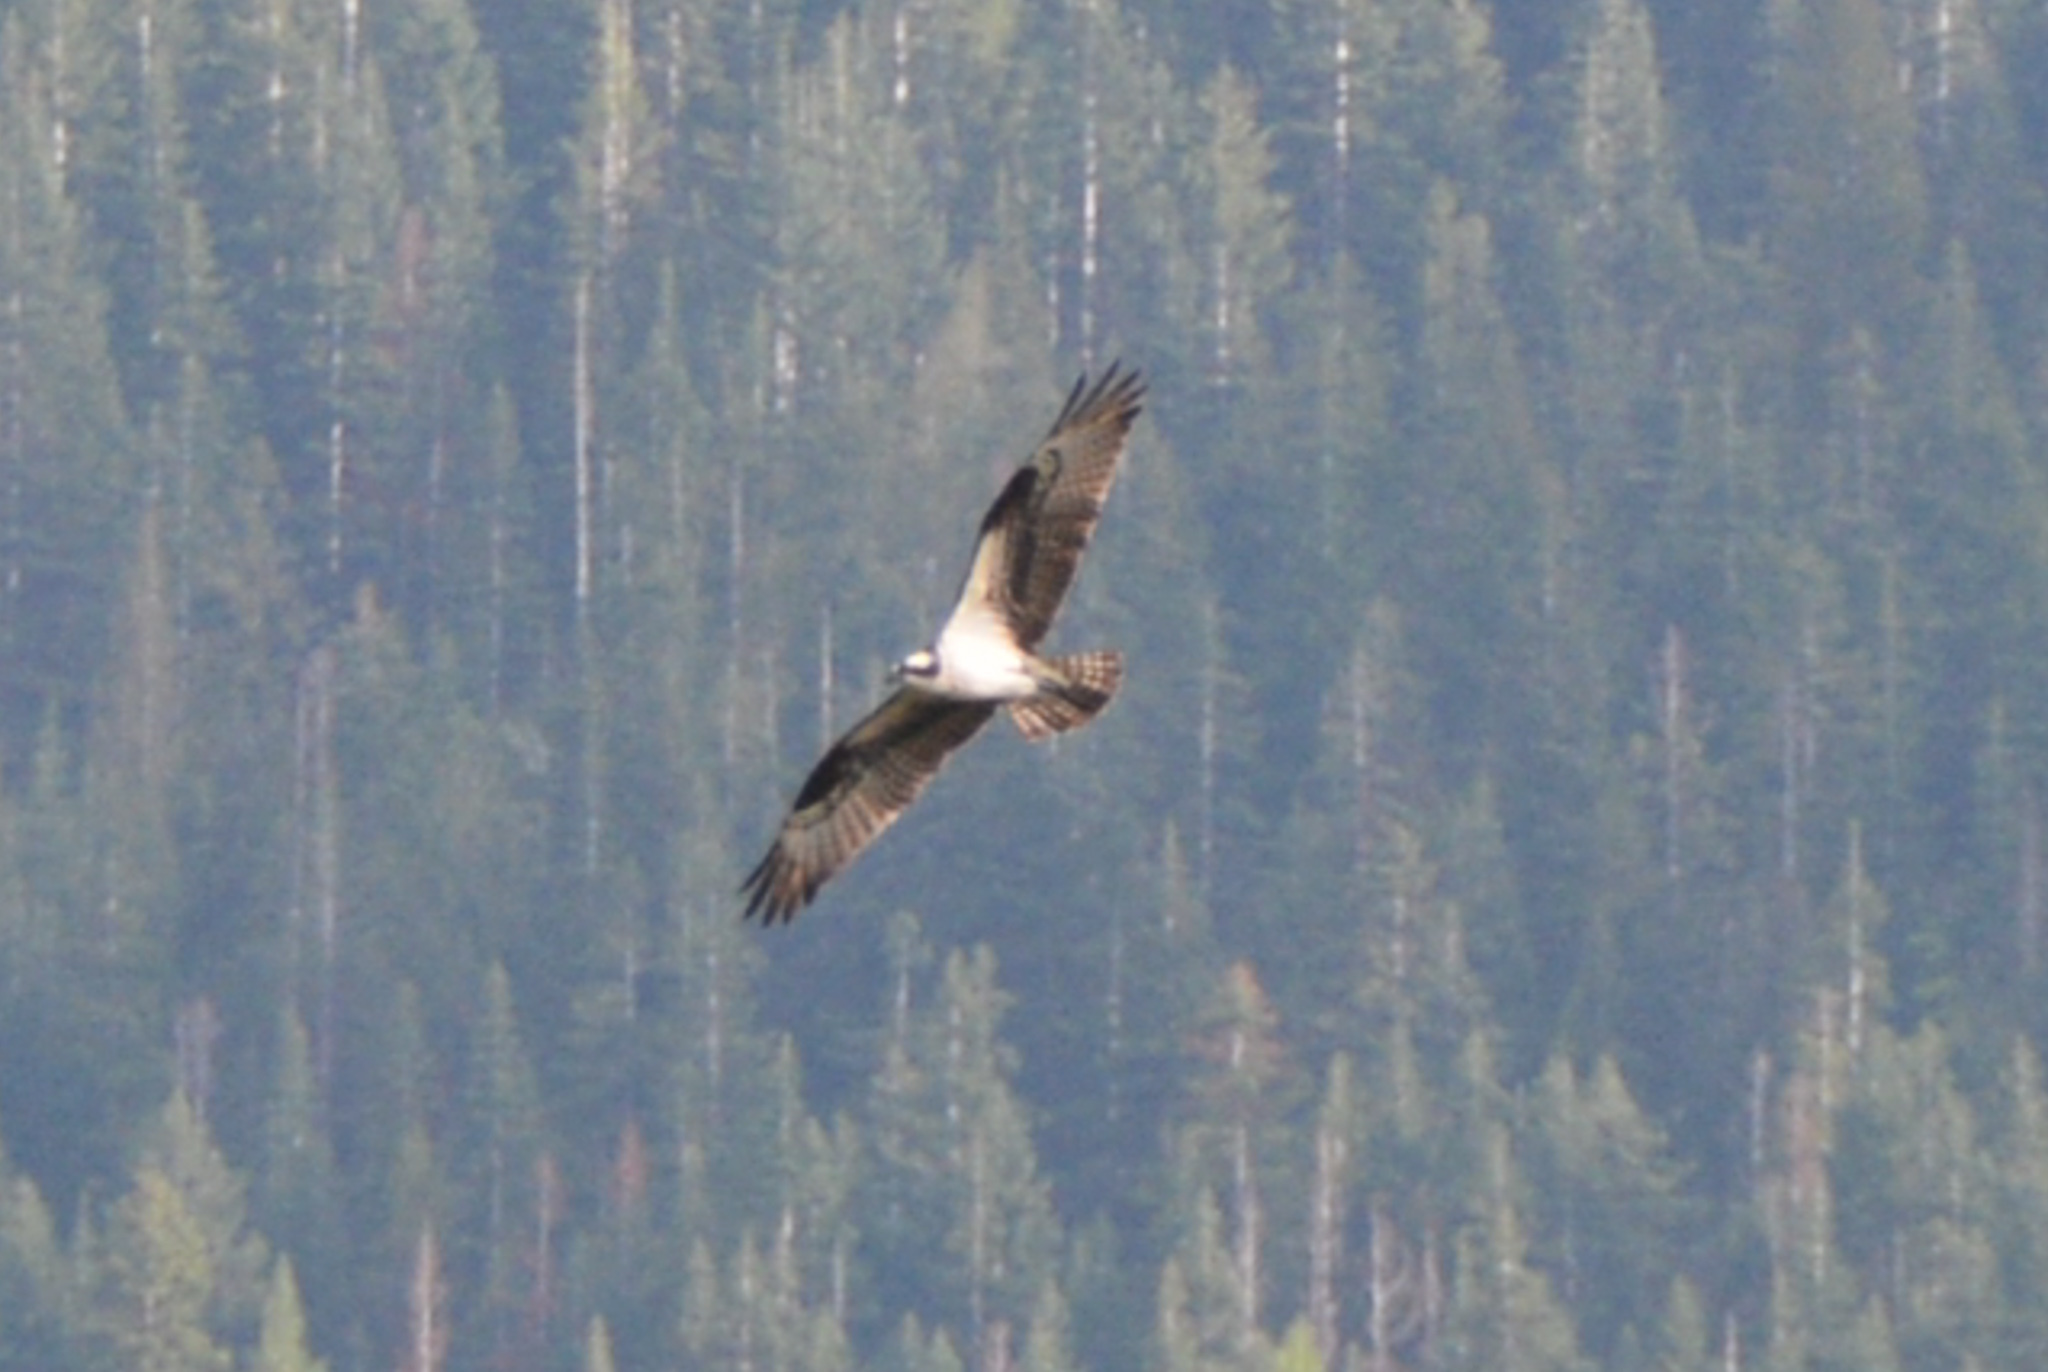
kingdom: Animalia
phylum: Chordata
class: Aves
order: Accipitriformes
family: Pandionidae
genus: Pandion
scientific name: Pandion haliaetus
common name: Osprey
